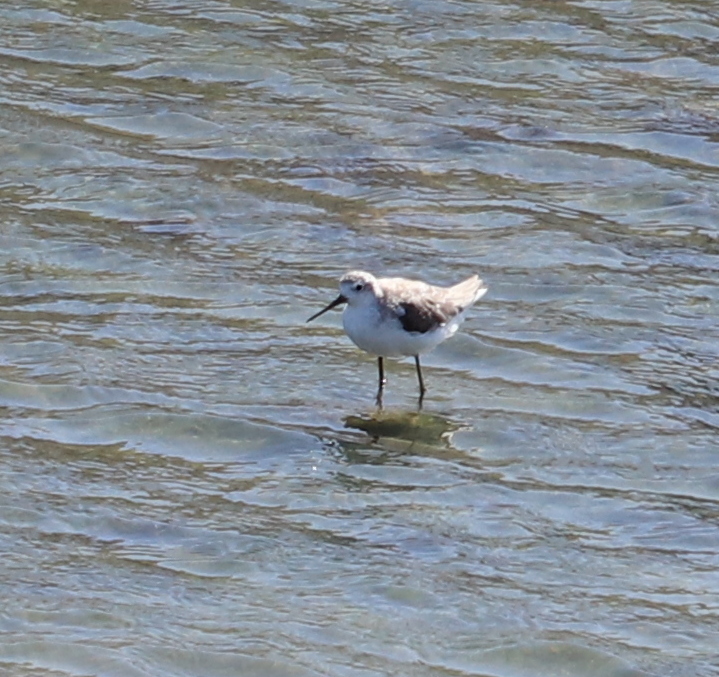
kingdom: Animalia
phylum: Chordata
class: Aves
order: Charadriiformes
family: Scolopacidae
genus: Tringa
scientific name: Tringa stagnatilis
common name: Marsh sandpiper
